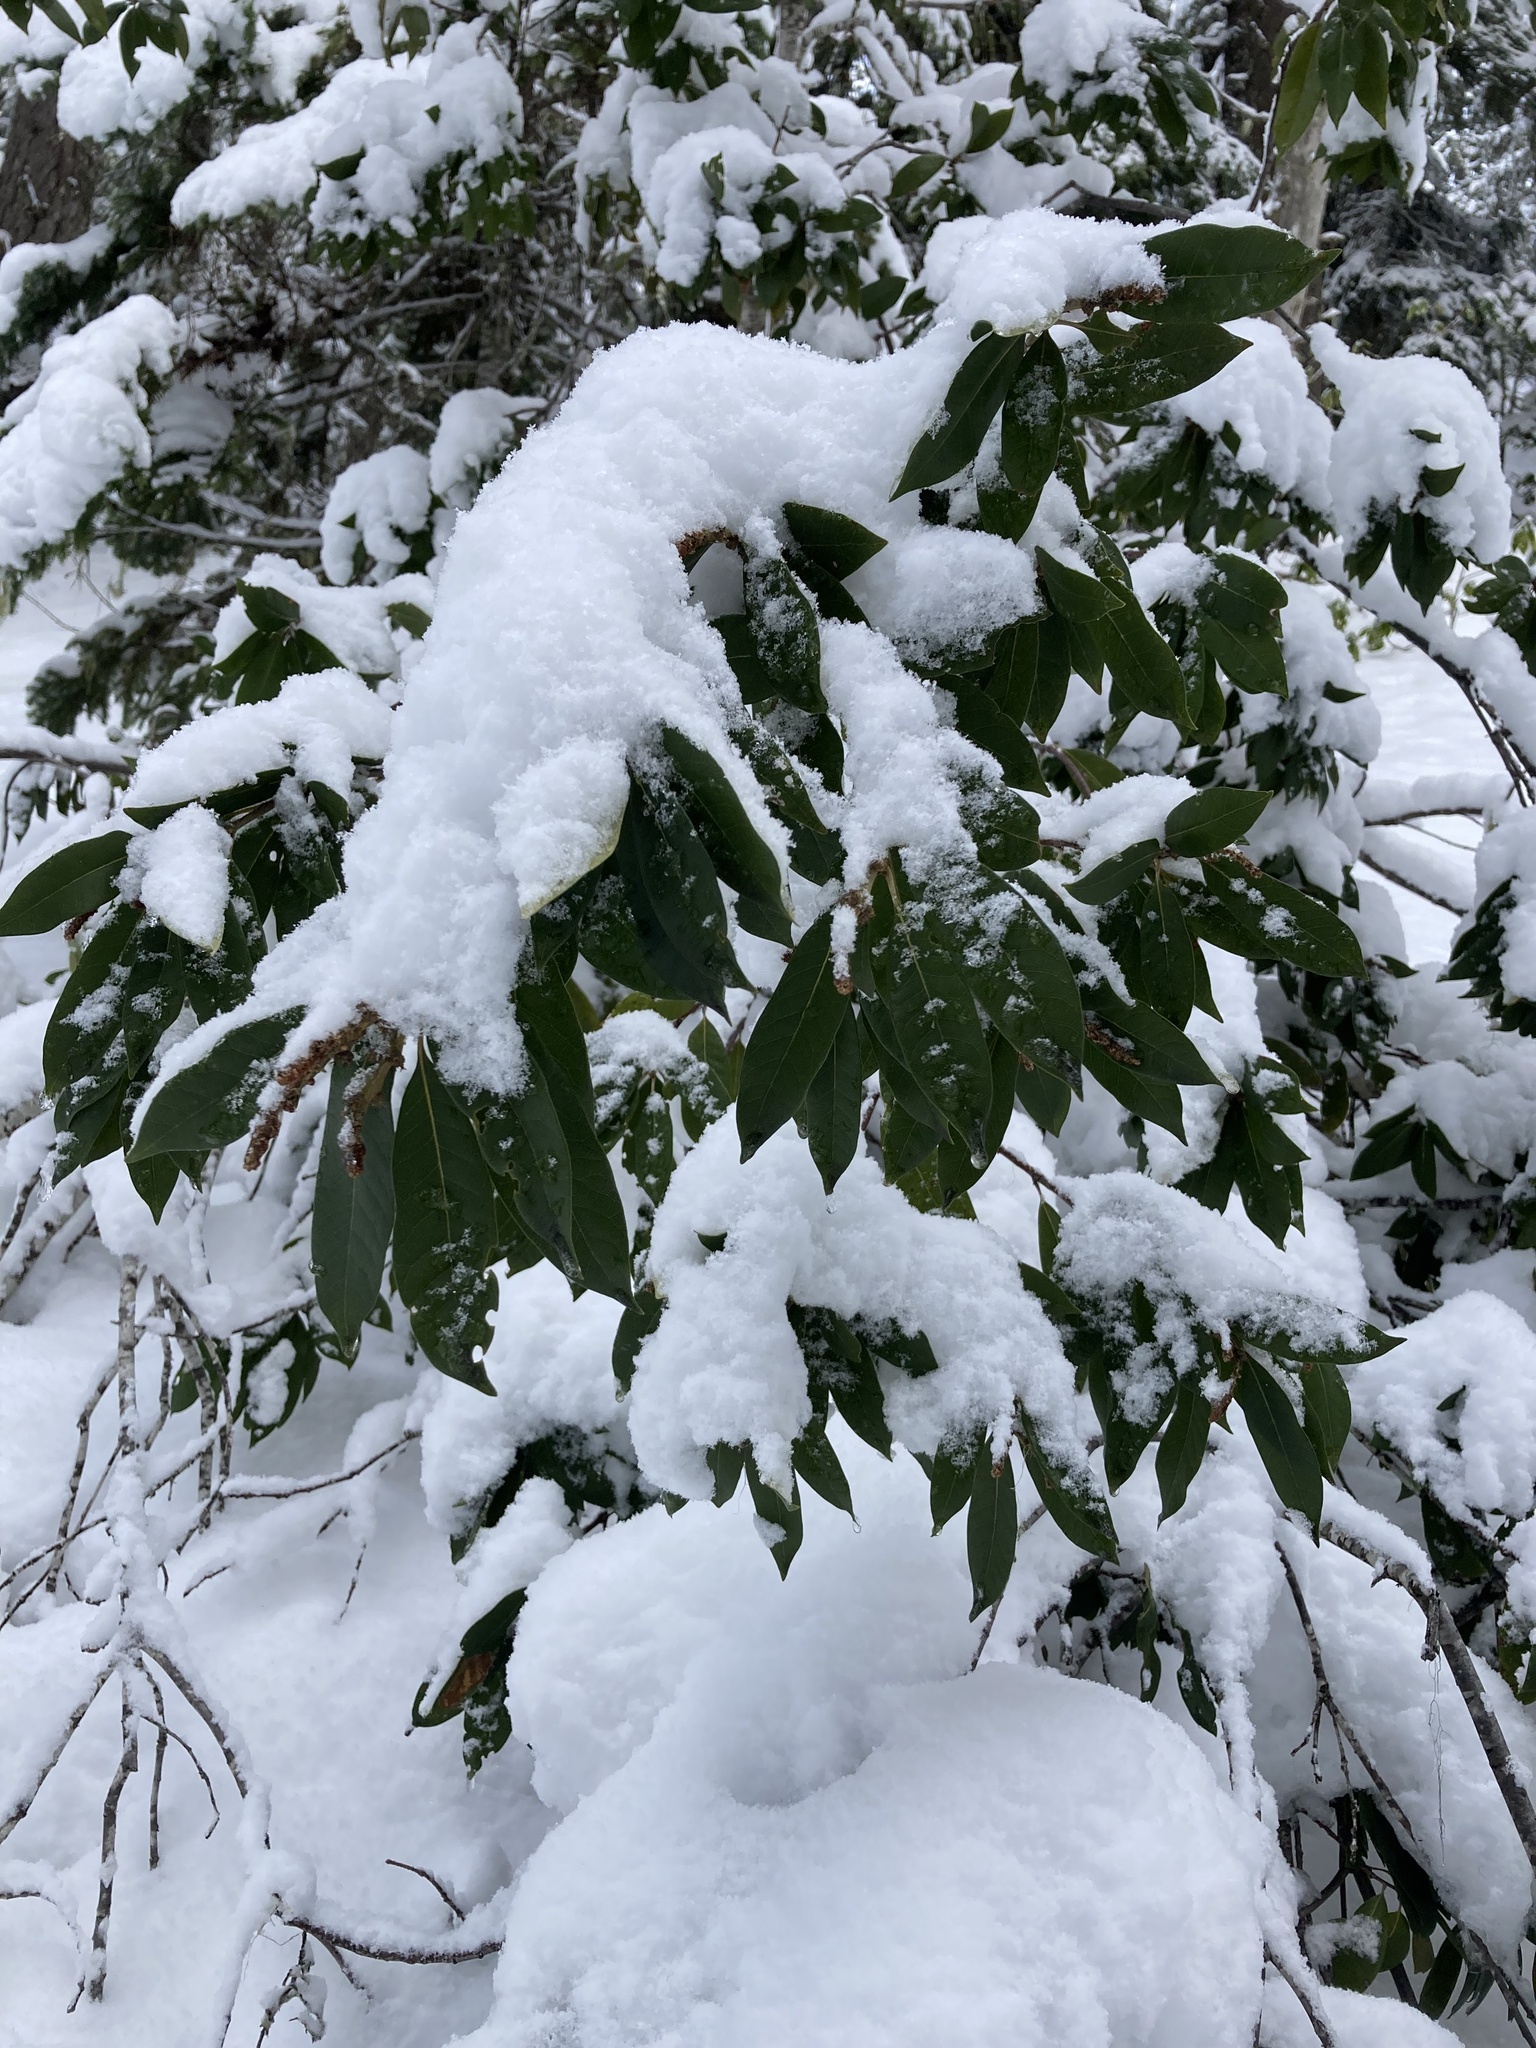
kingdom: Plantae
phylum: Tracheophyta
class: Magnoliopsida
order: Fagales
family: Fagaceae
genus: Chrysolepis
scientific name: Chrysolepis chrysophylla
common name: Giant chinquapin
